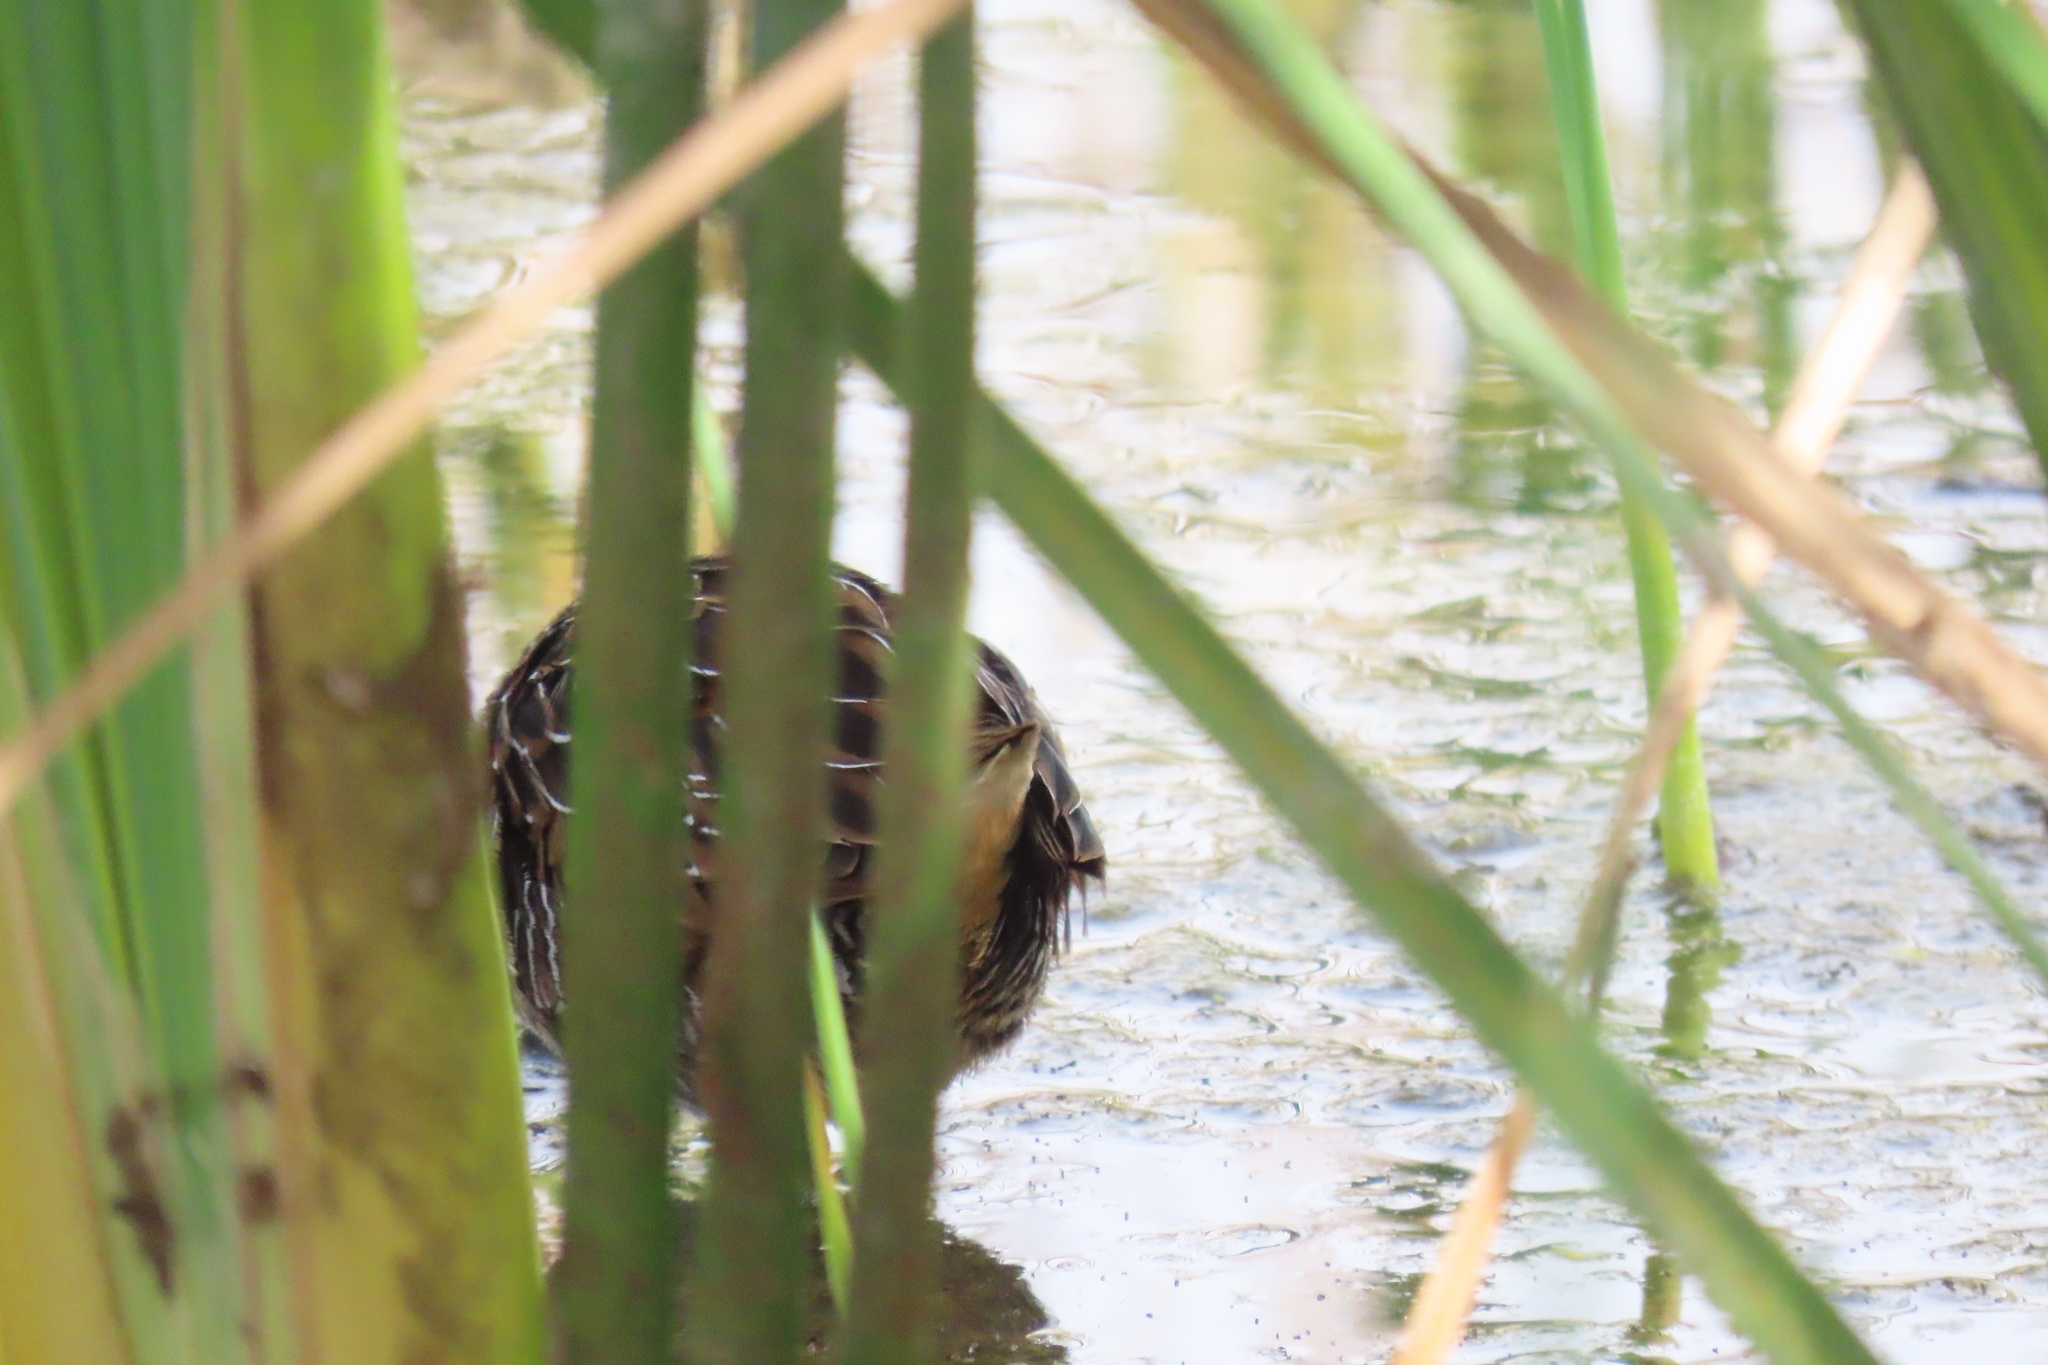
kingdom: Animalia
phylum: Chordata
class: Aves
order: Gruiformes
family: Rallidae
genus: Porzana
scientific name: Porzana carolina
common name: Sora
